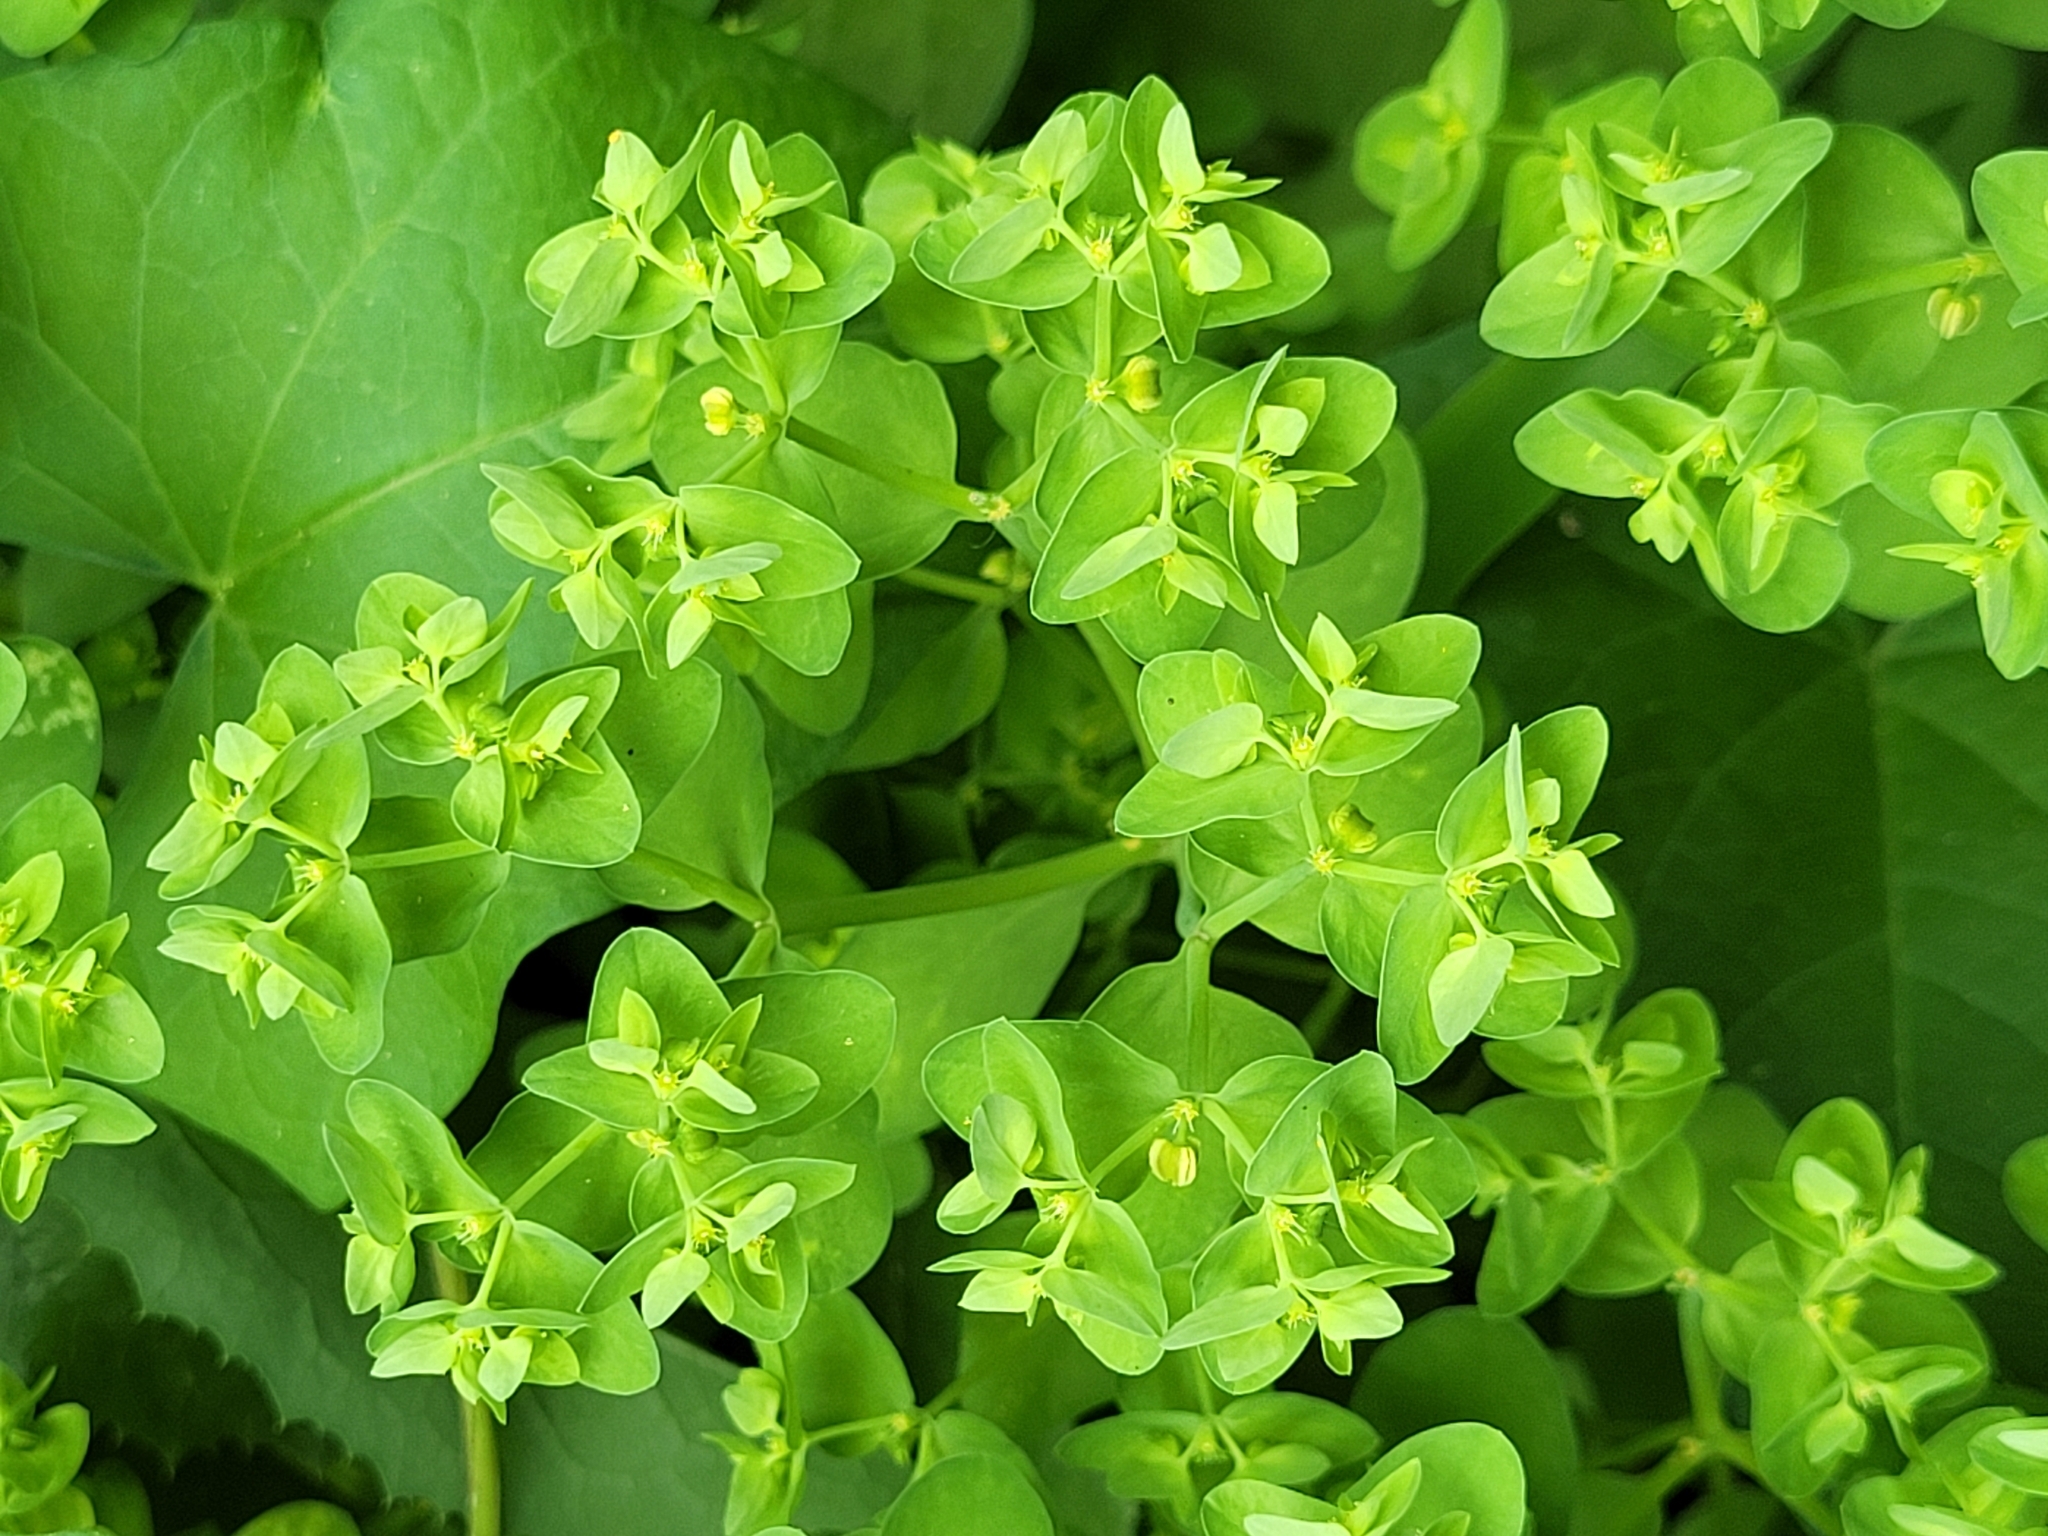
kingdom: Plantae
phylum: Tracheophyta
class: Magnoliopsida
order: Malpighiales
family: Euphorbiaceae
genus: Euphorbia
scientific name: Euphorbia peplus
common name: Petty spurge
